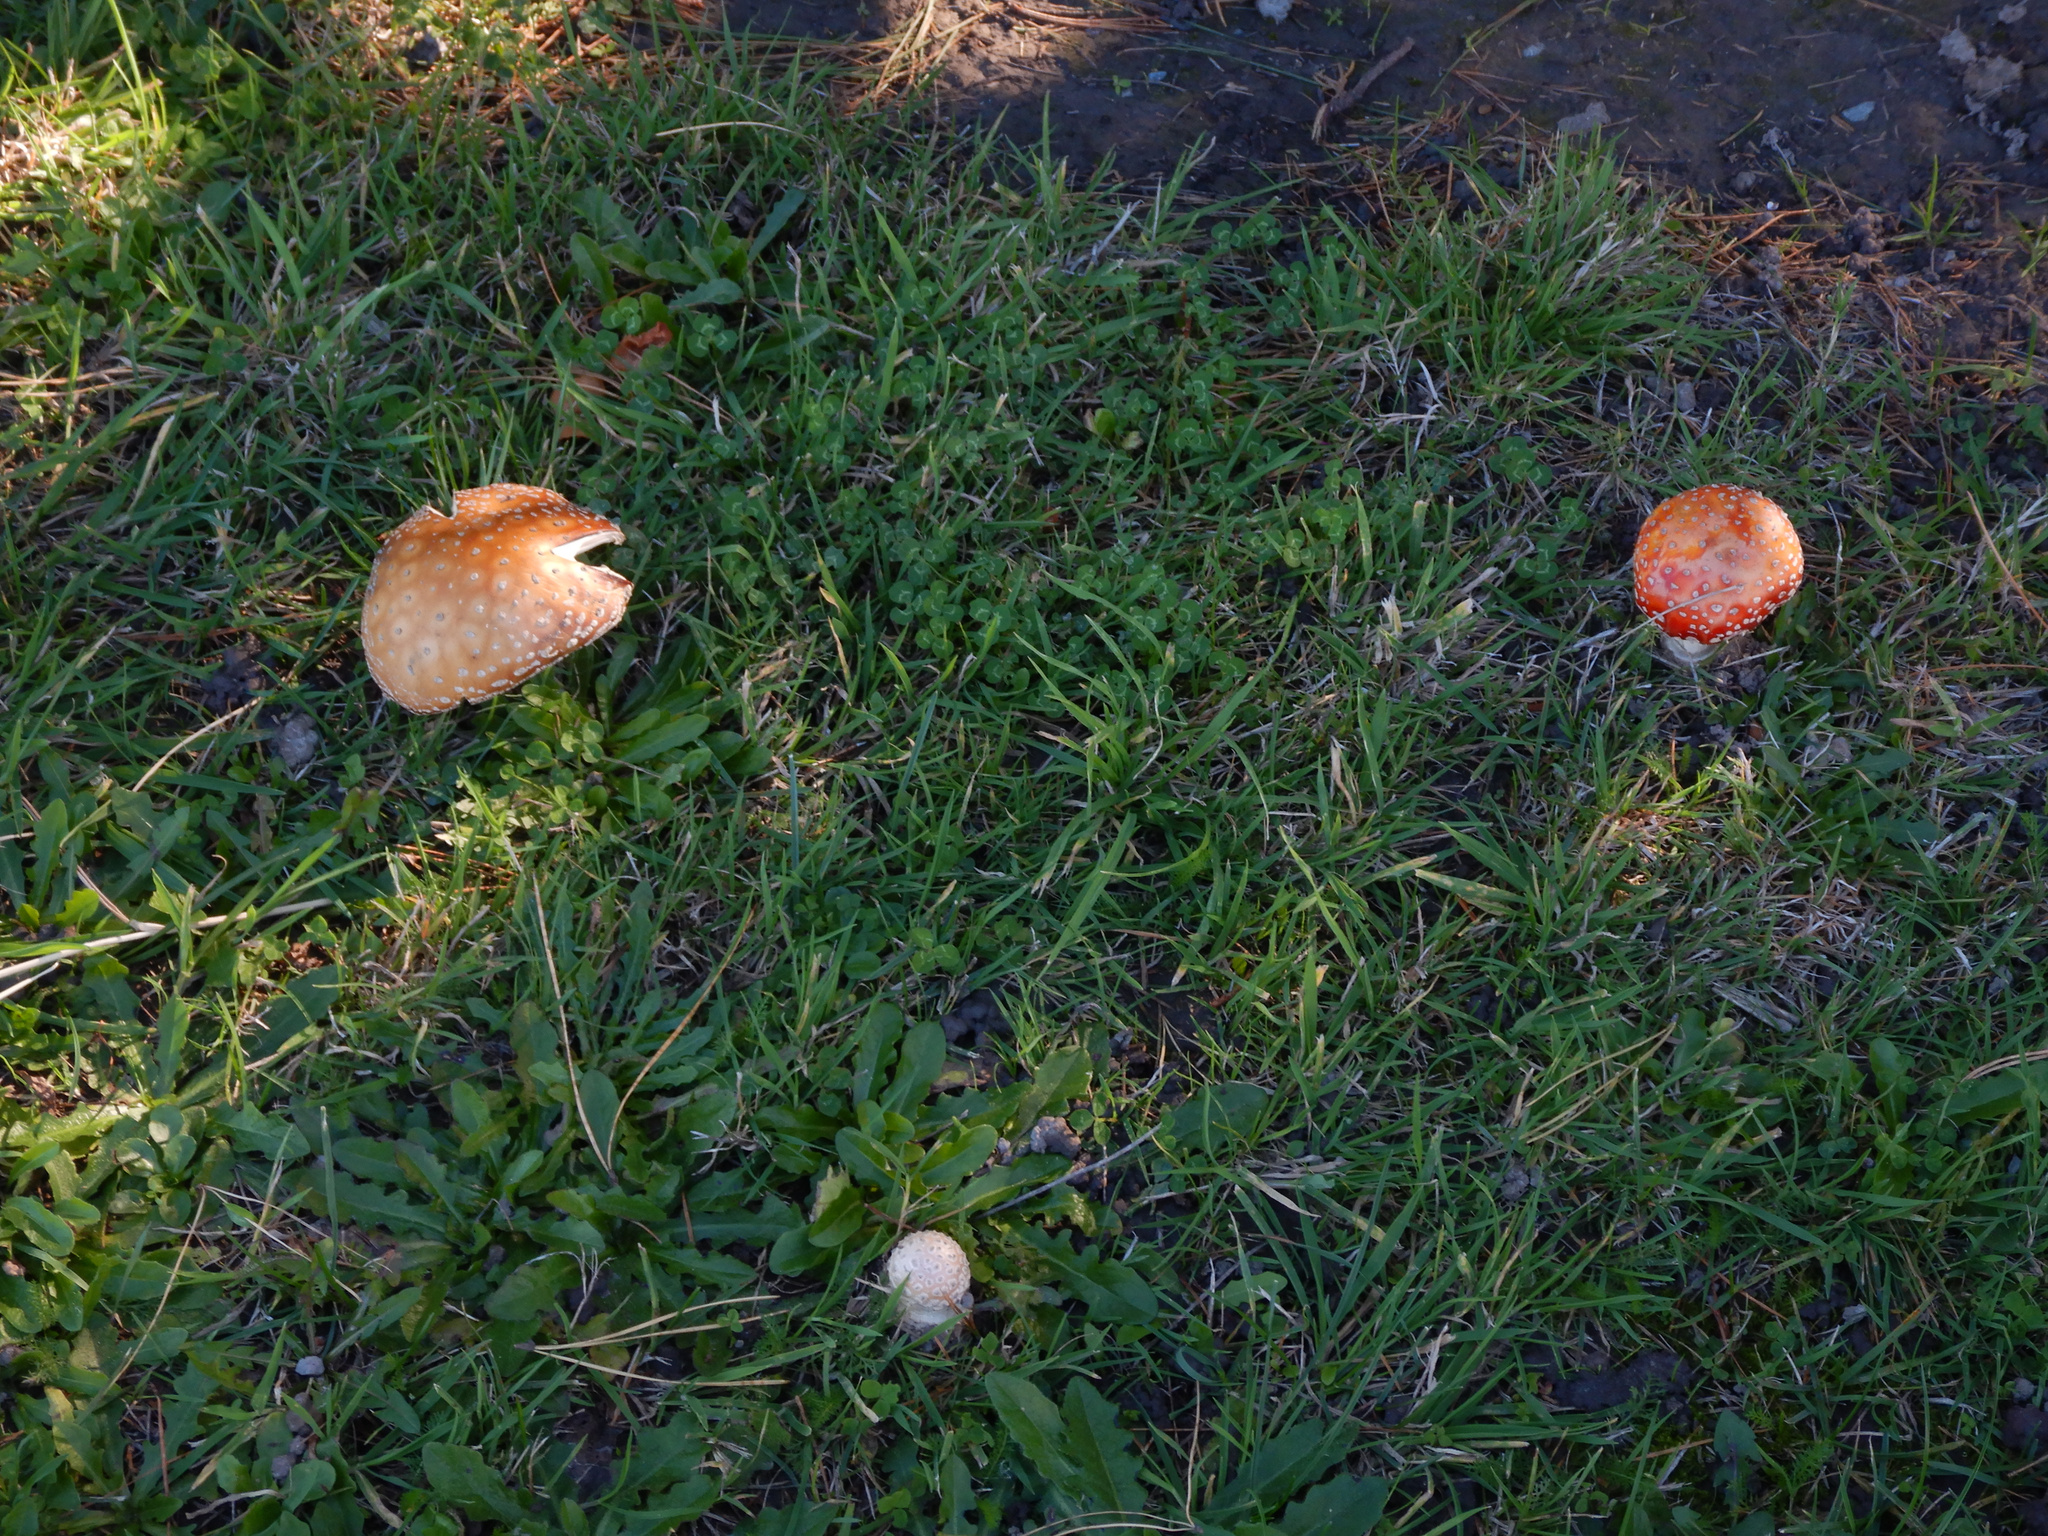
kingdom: Fungi
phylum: Basidiomycota
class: Agaricomycetes
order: Agaricales
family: Amanitaceae
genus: Amanita
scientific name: Amanita muscaria
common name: Fly agaric
